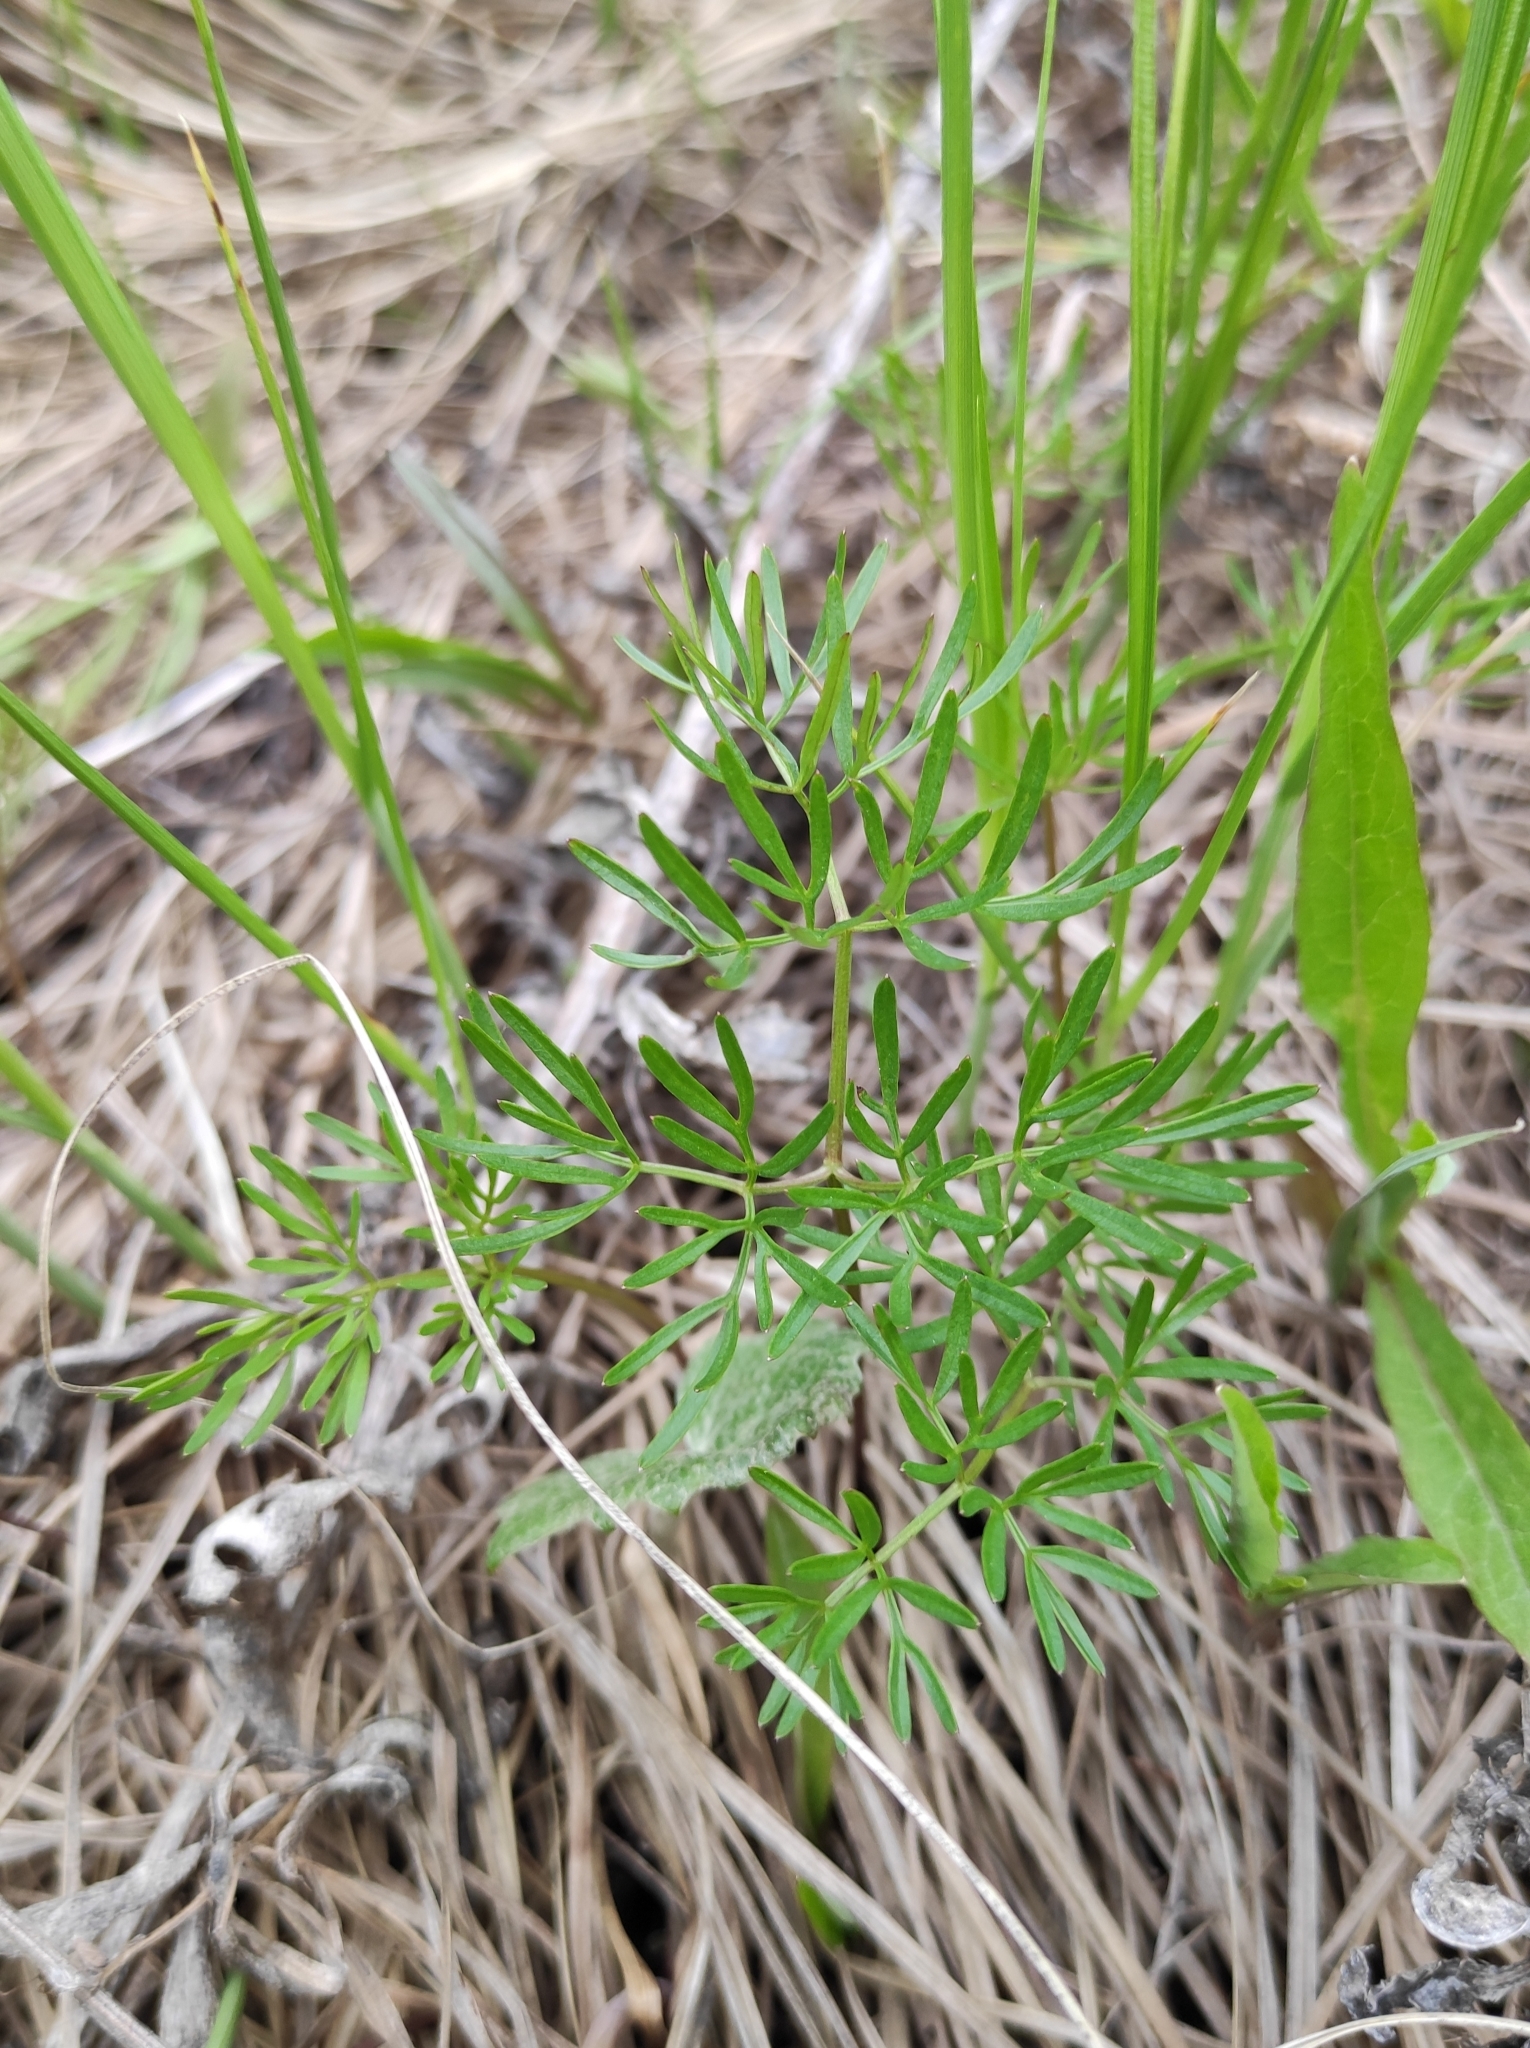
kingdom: Plantae
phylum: Tracheophyta
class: Magnoliopsida
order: Apiales
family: Apiaceae
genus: Cenolophium
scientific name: Cenolophium fischeri
